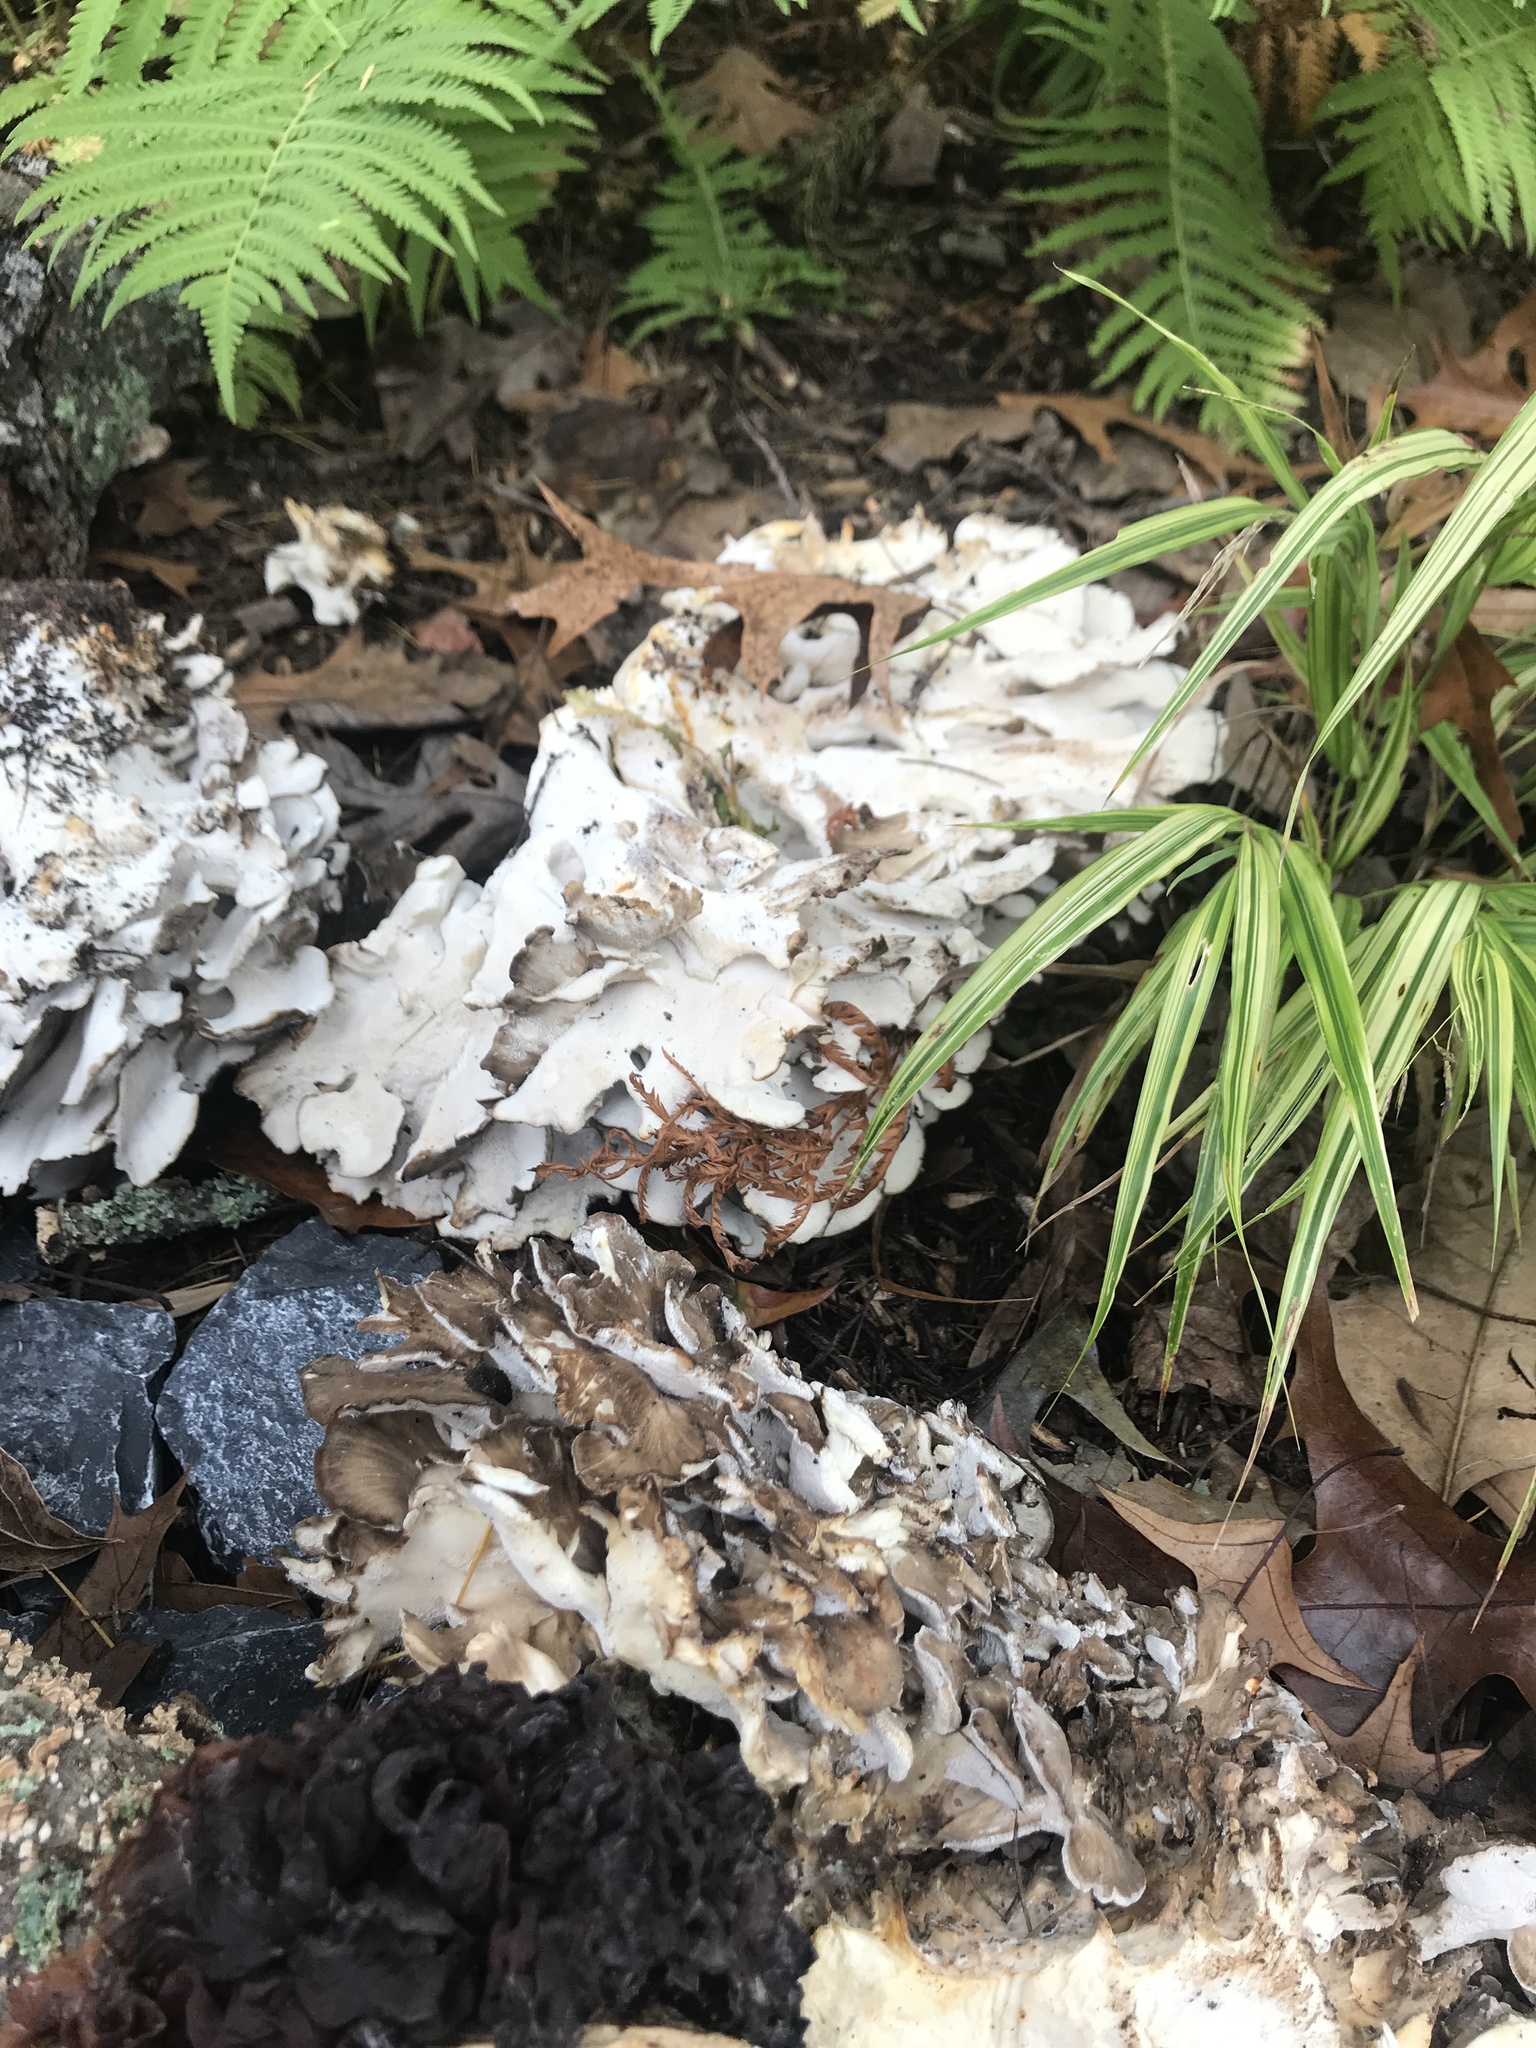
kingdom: Fungi
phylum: Basidiomycota
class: Agaricomycetes
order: Polyporales
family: Grifolaceae
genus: Grifola
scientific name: Grifola frondosa
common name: Hen of the woods
